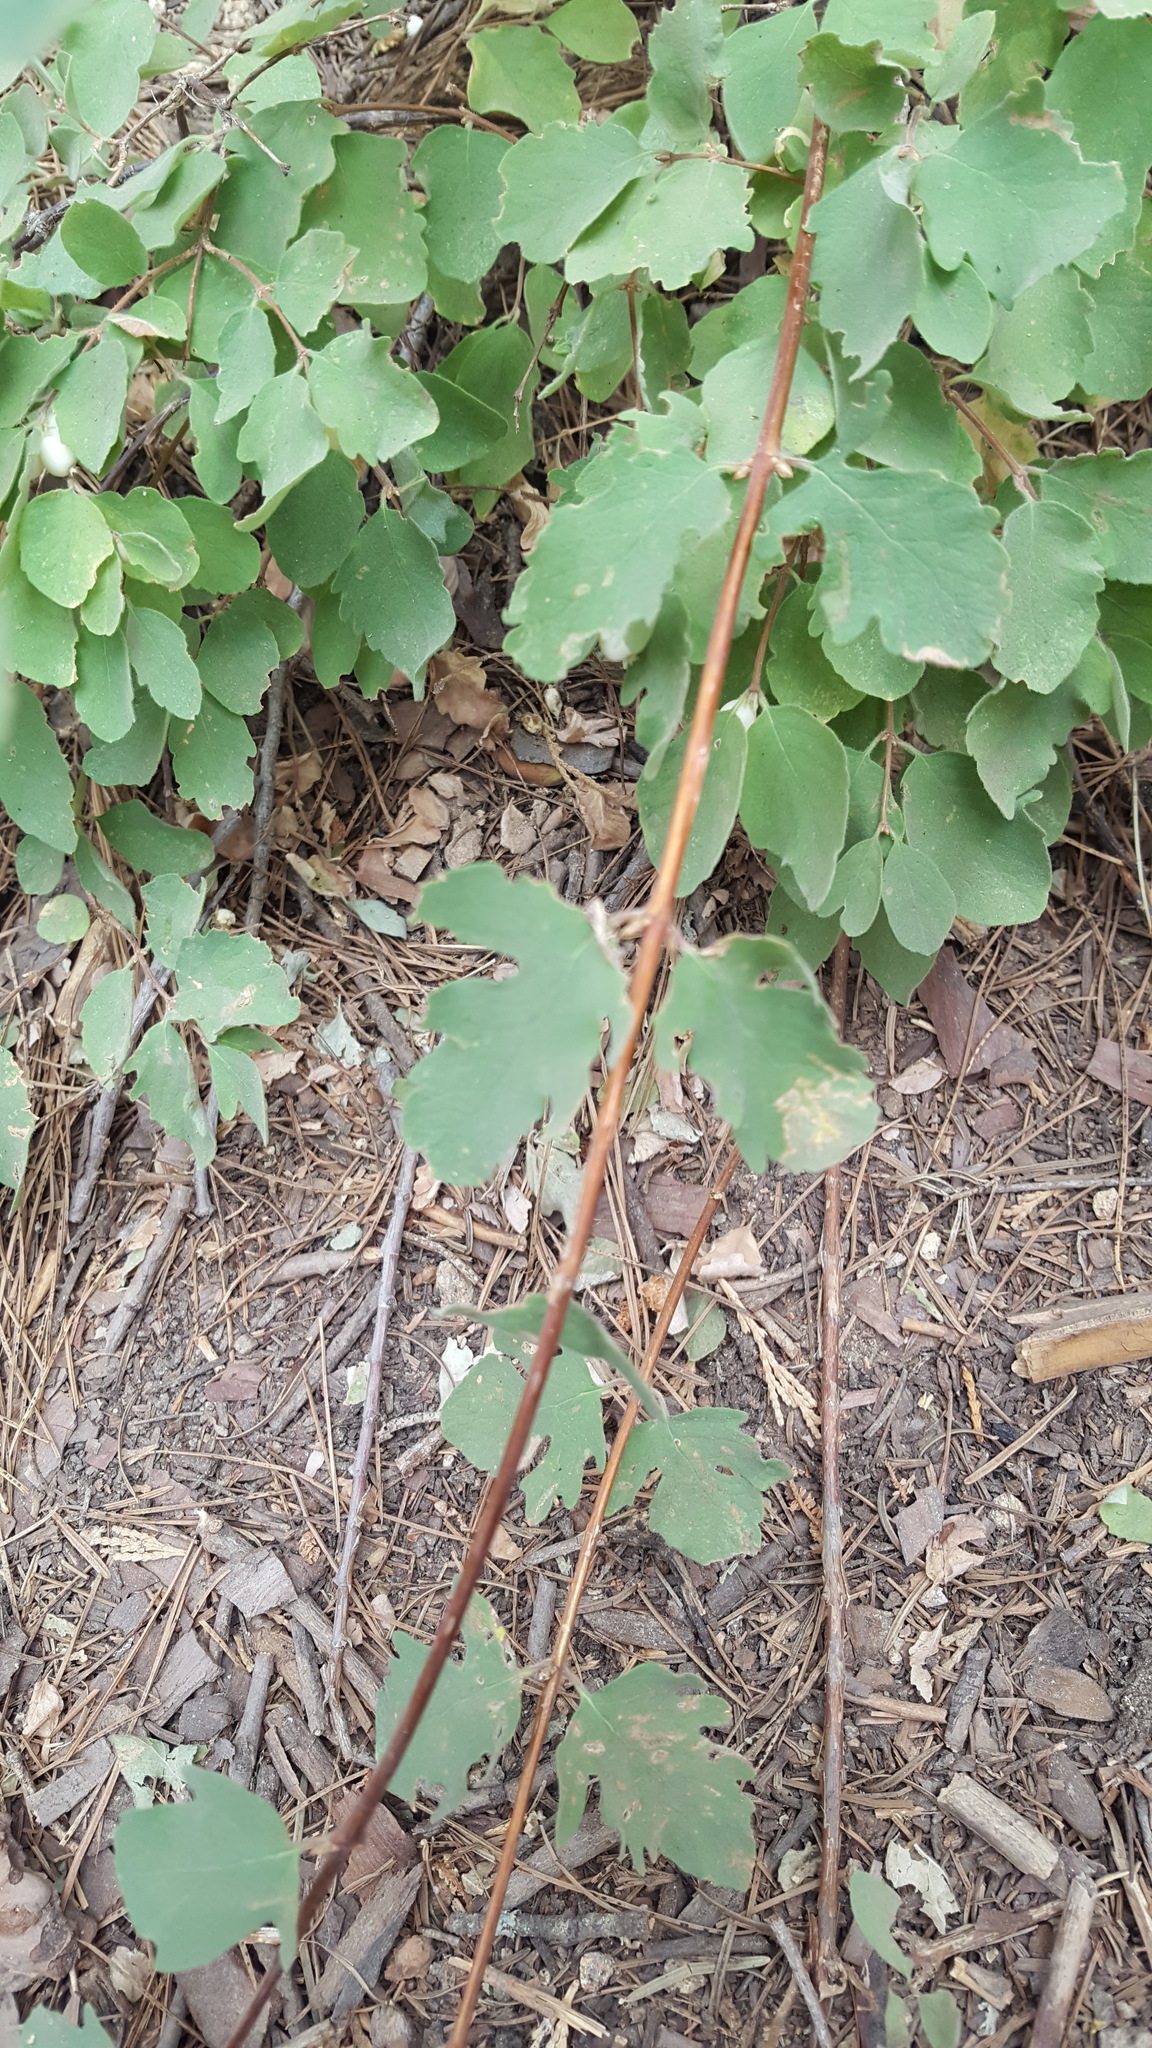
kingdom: Plantae
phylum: Tracheophyta
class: Magnoliopsida
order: Dipsacales
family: Caprifoliaceae
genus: Symphoricarpos
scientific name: Symphoricarpos mollis
